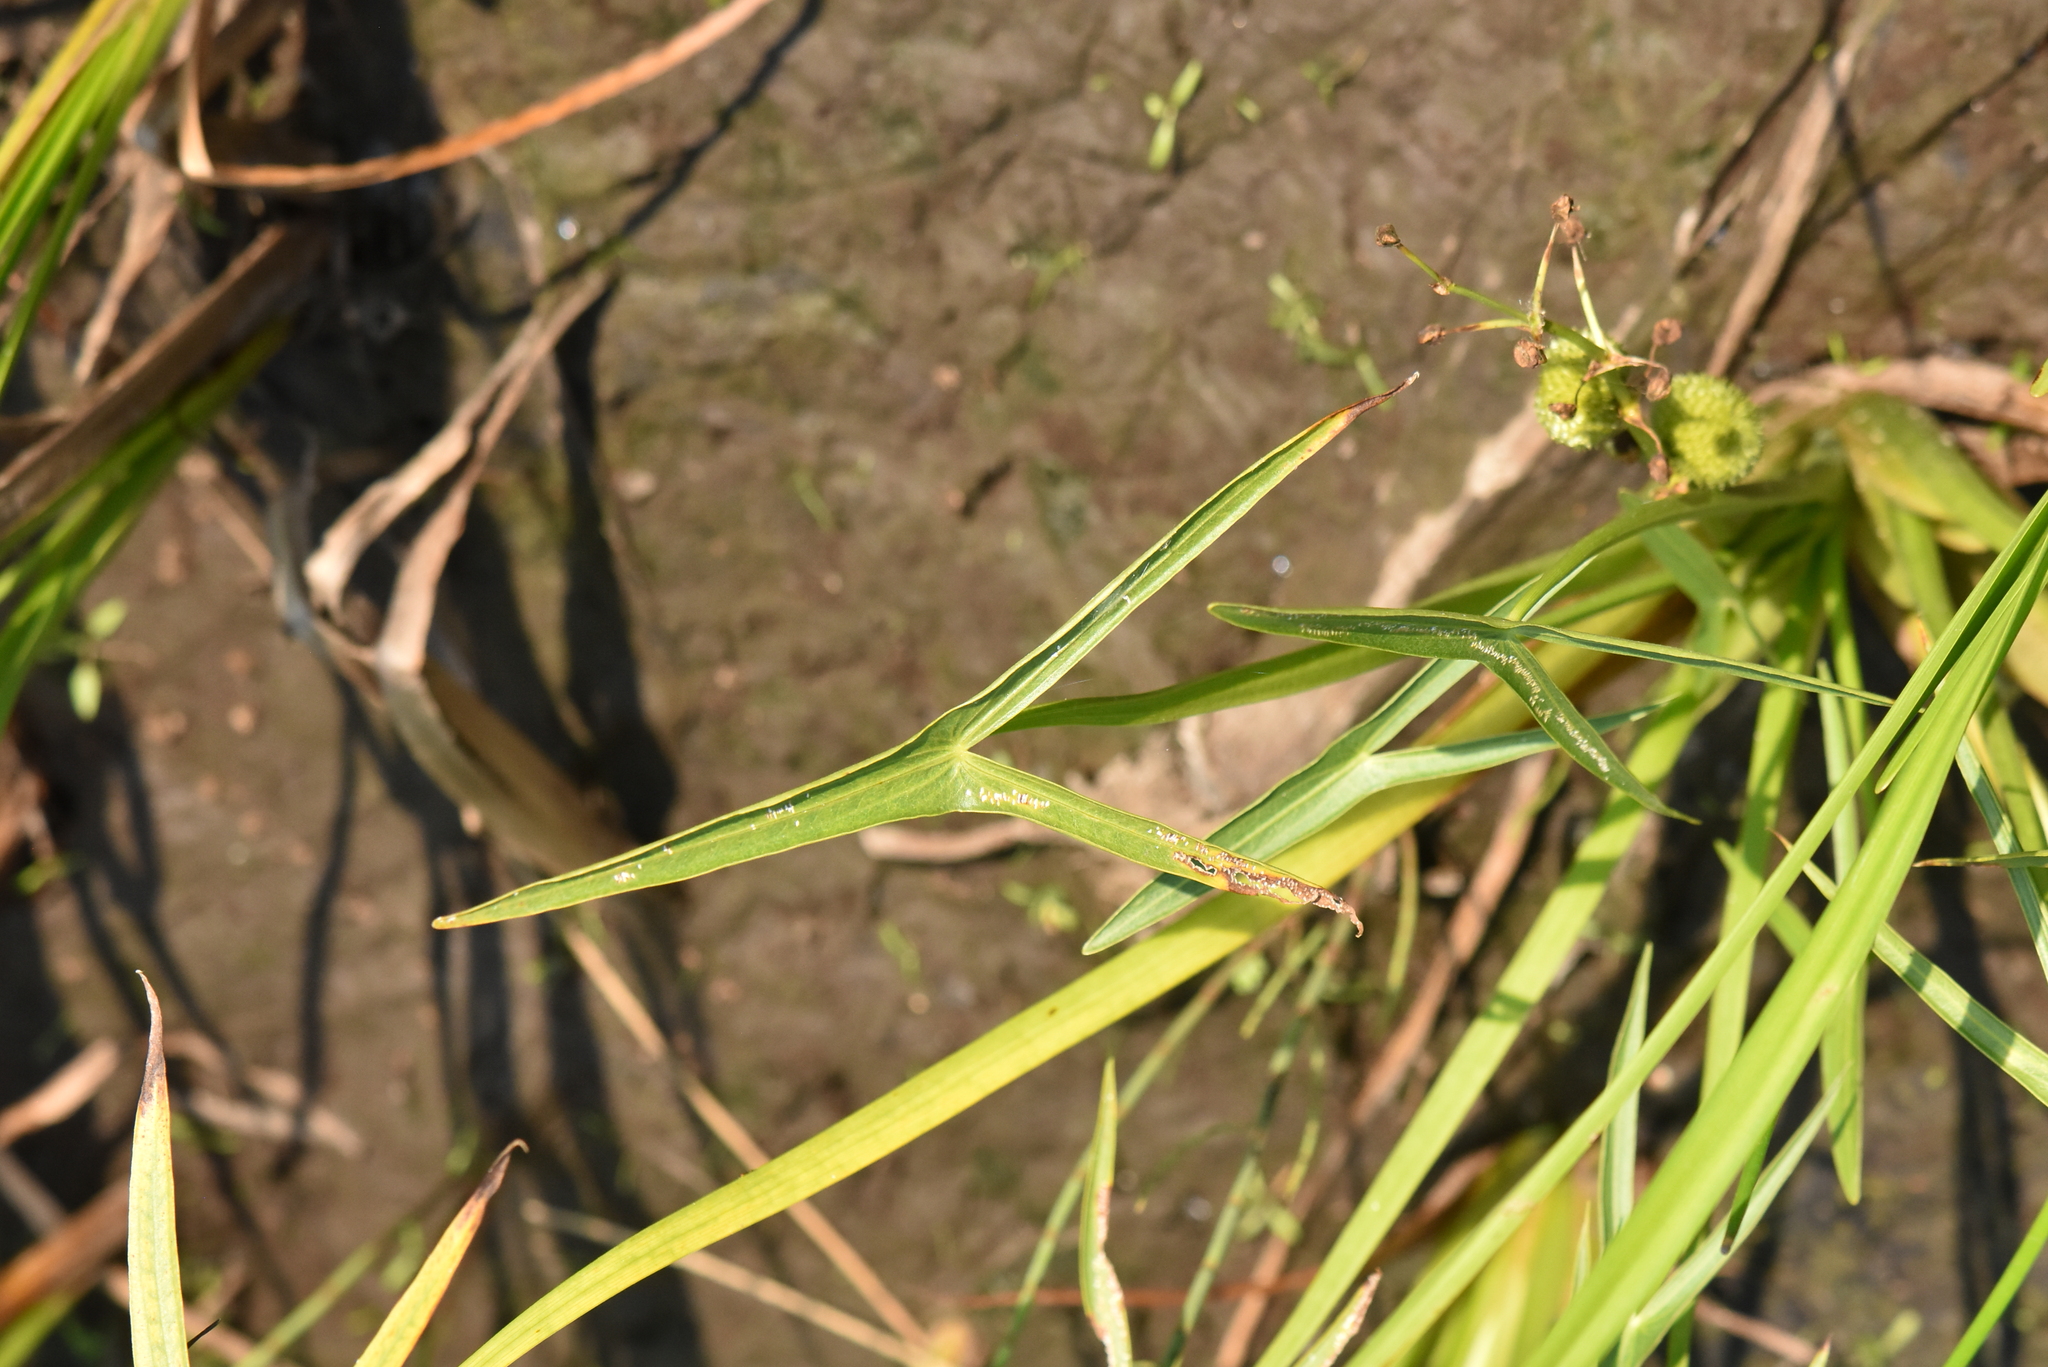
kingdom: Plantae
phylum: Tracheophyta
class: Liliopsida
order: Alismatales
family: Alismataceae
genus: Sagittaria
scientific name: Sagittaria sagittifolia
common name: Arrowhead
